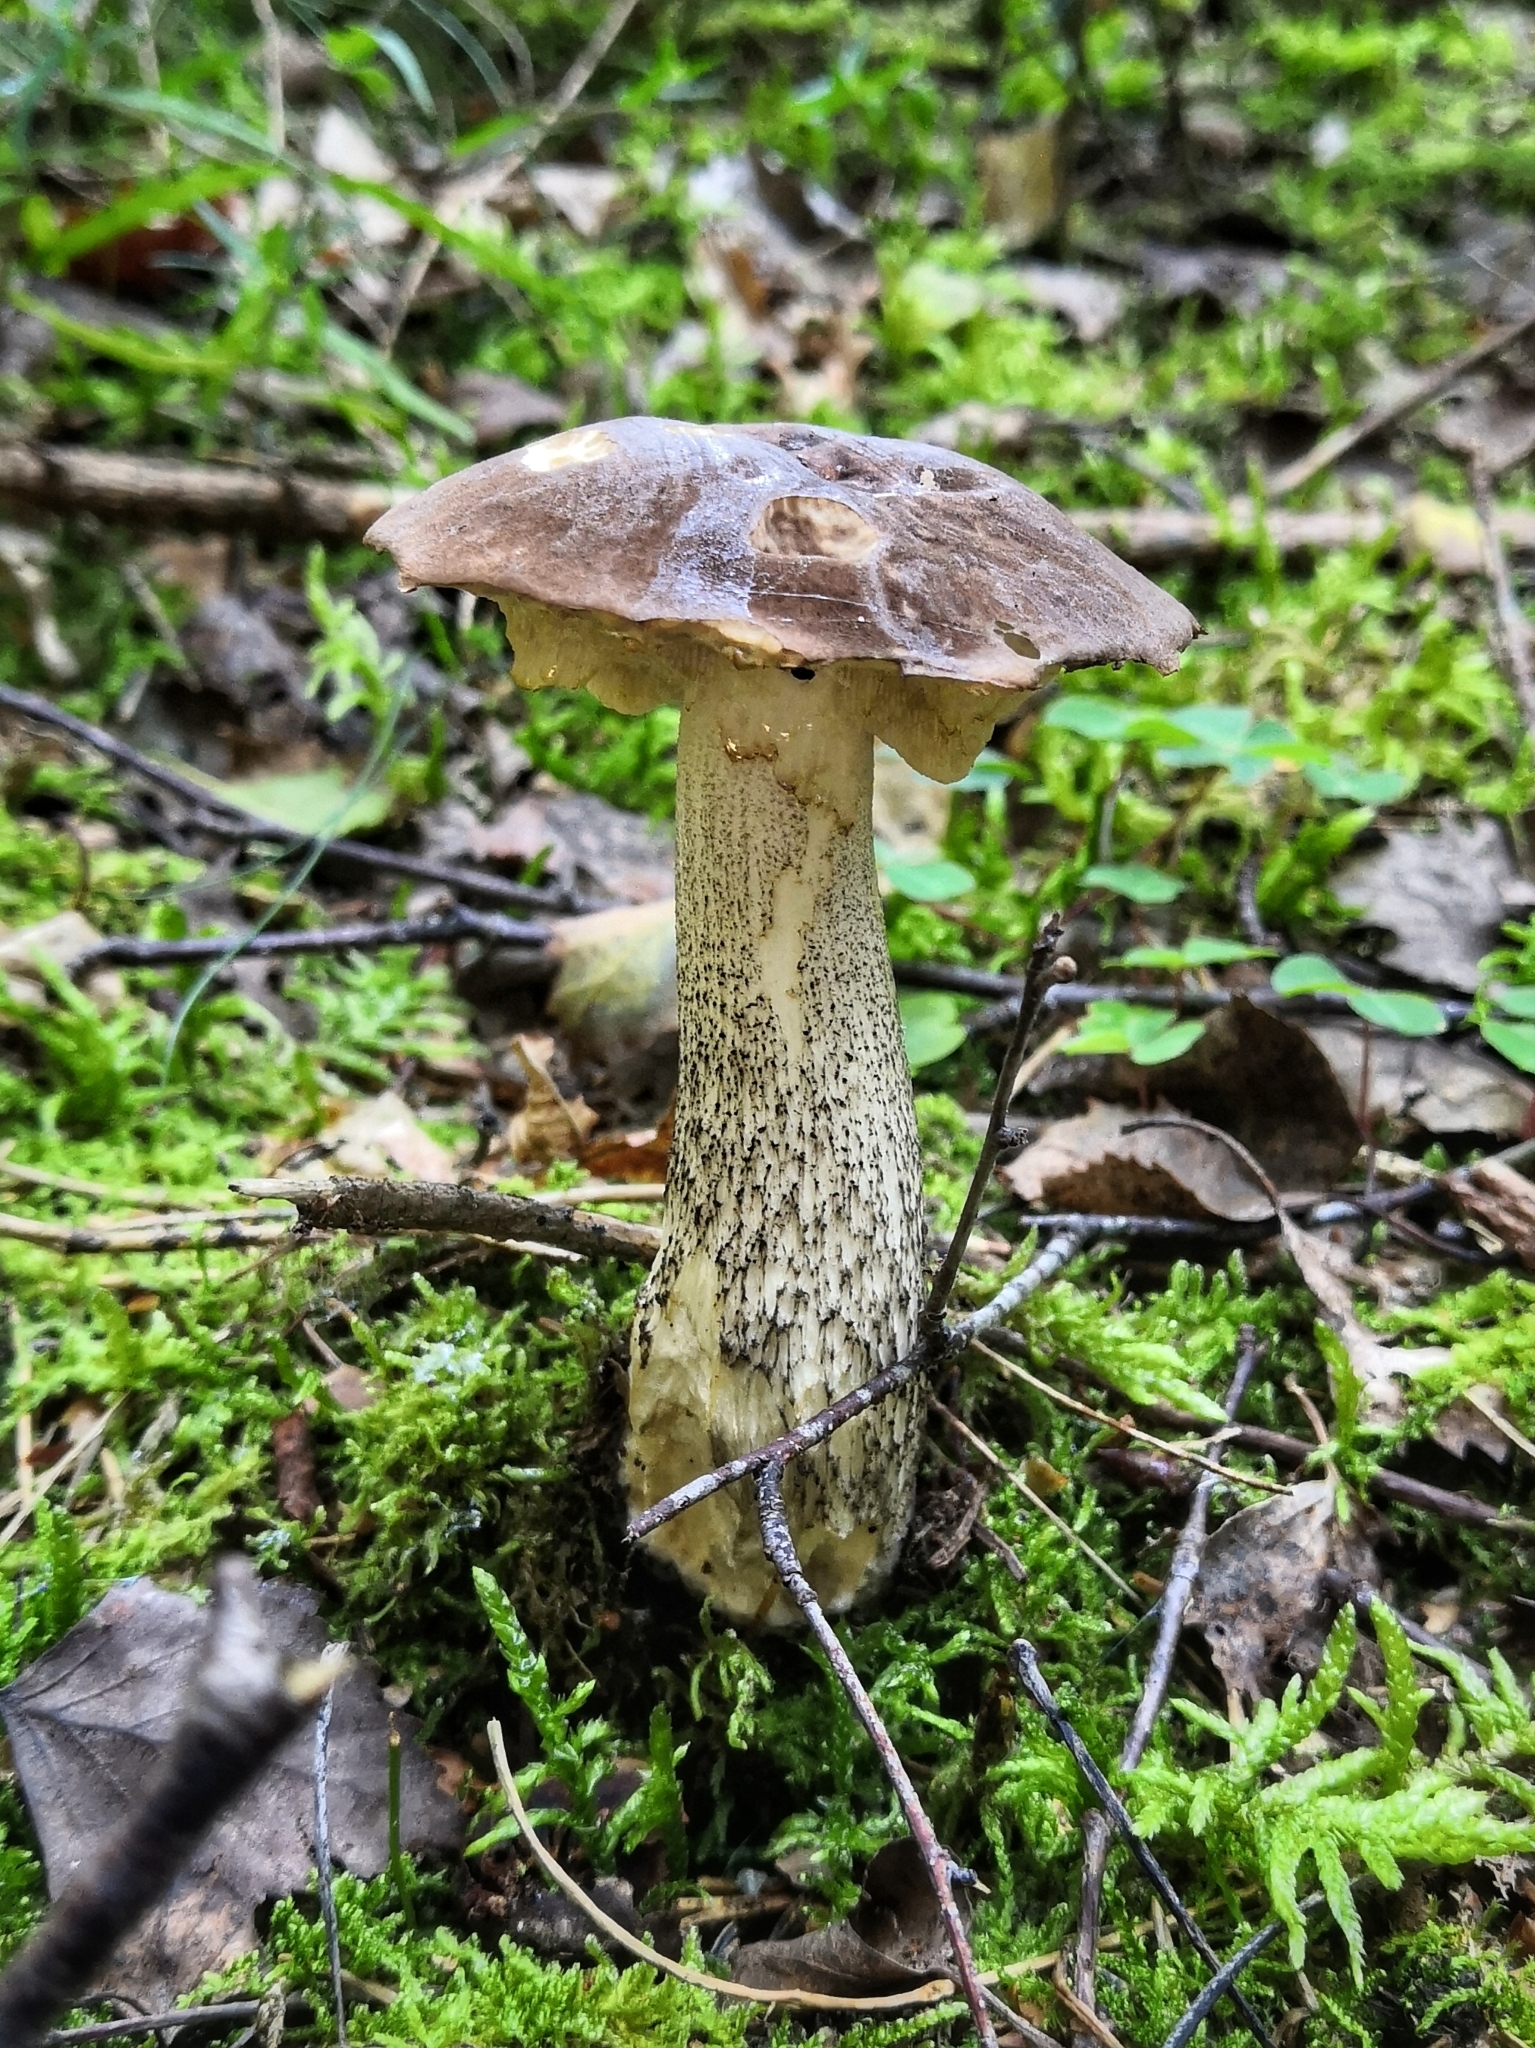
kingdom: Fungi
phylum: Basidiomycota
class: Agaricomycetes
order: Boletales
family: Boletaceae
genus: Leccinum
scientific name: Leccinum scabrum
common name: Blushing bolete
